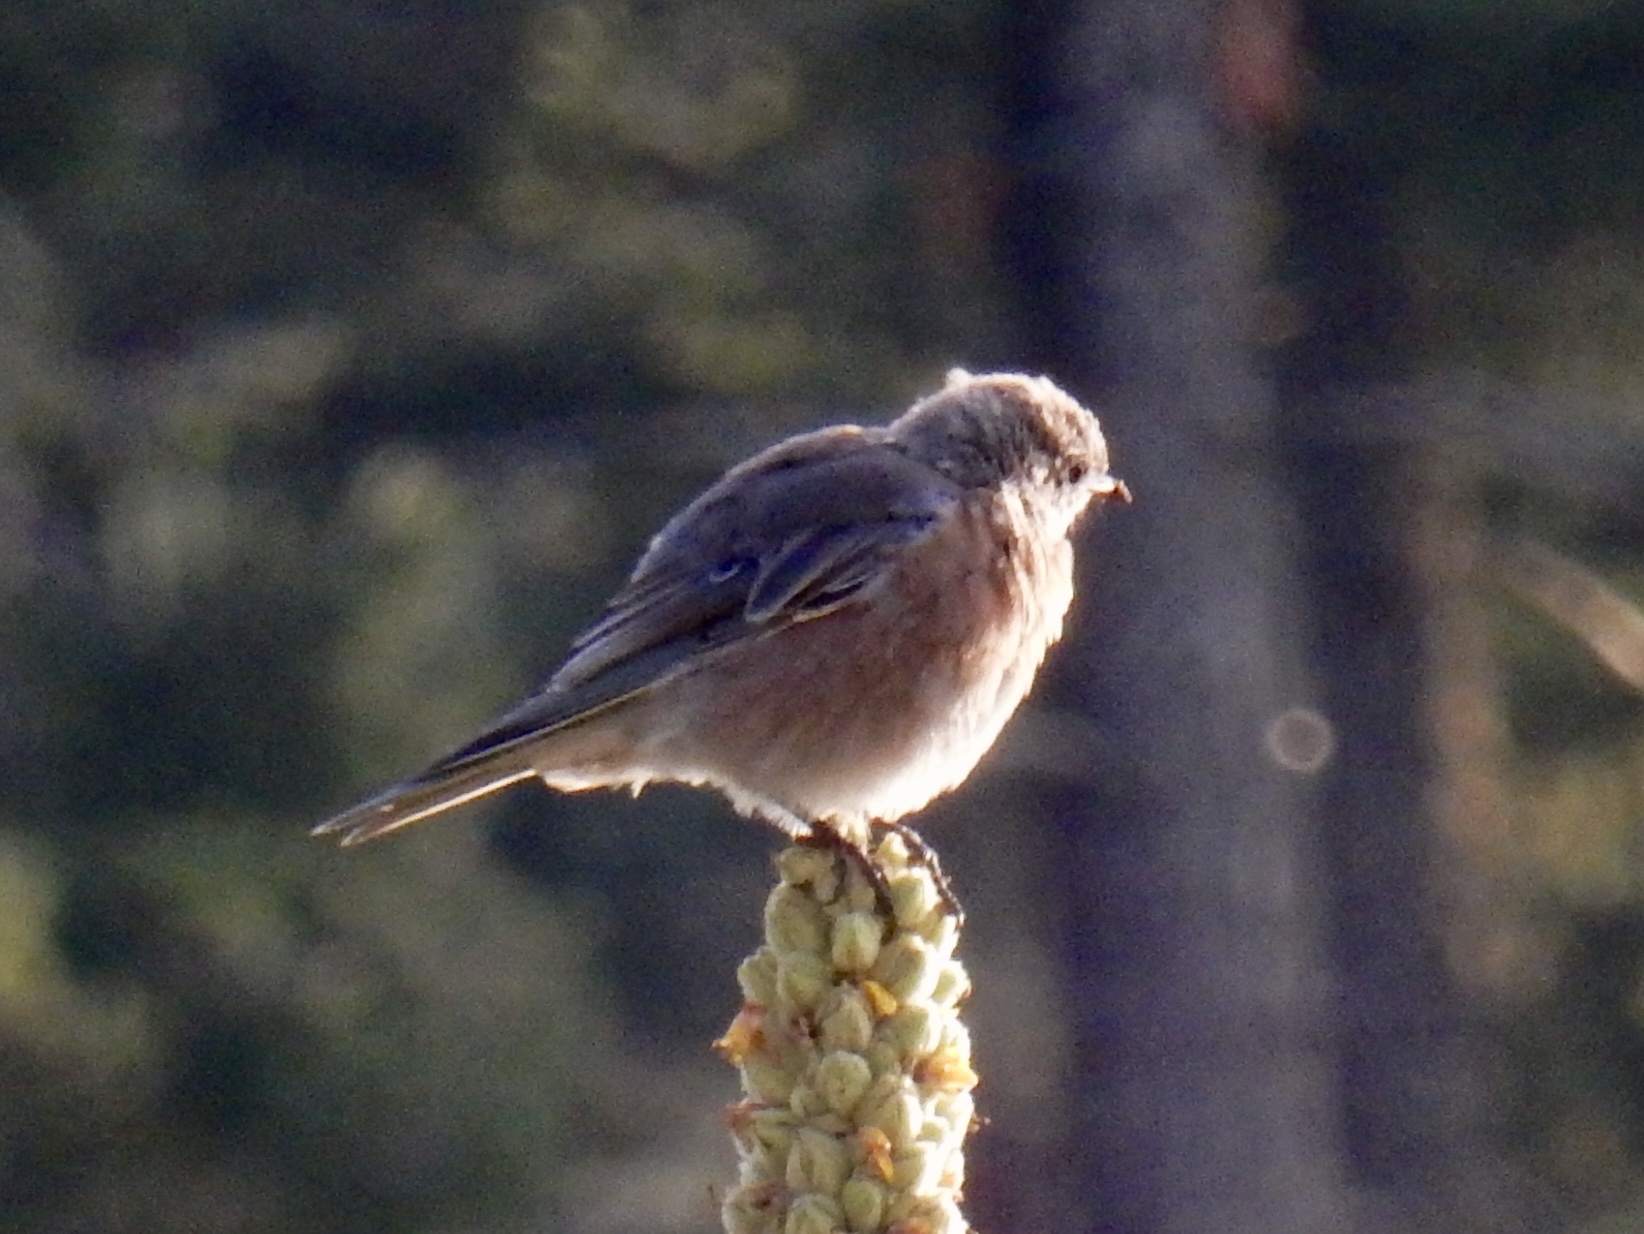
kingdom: Animalia
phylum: Chordata
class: Aves
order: Passeriformes
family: Turdidae
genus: Sialia
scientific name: Sialia mexicana
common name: Western bluebird
